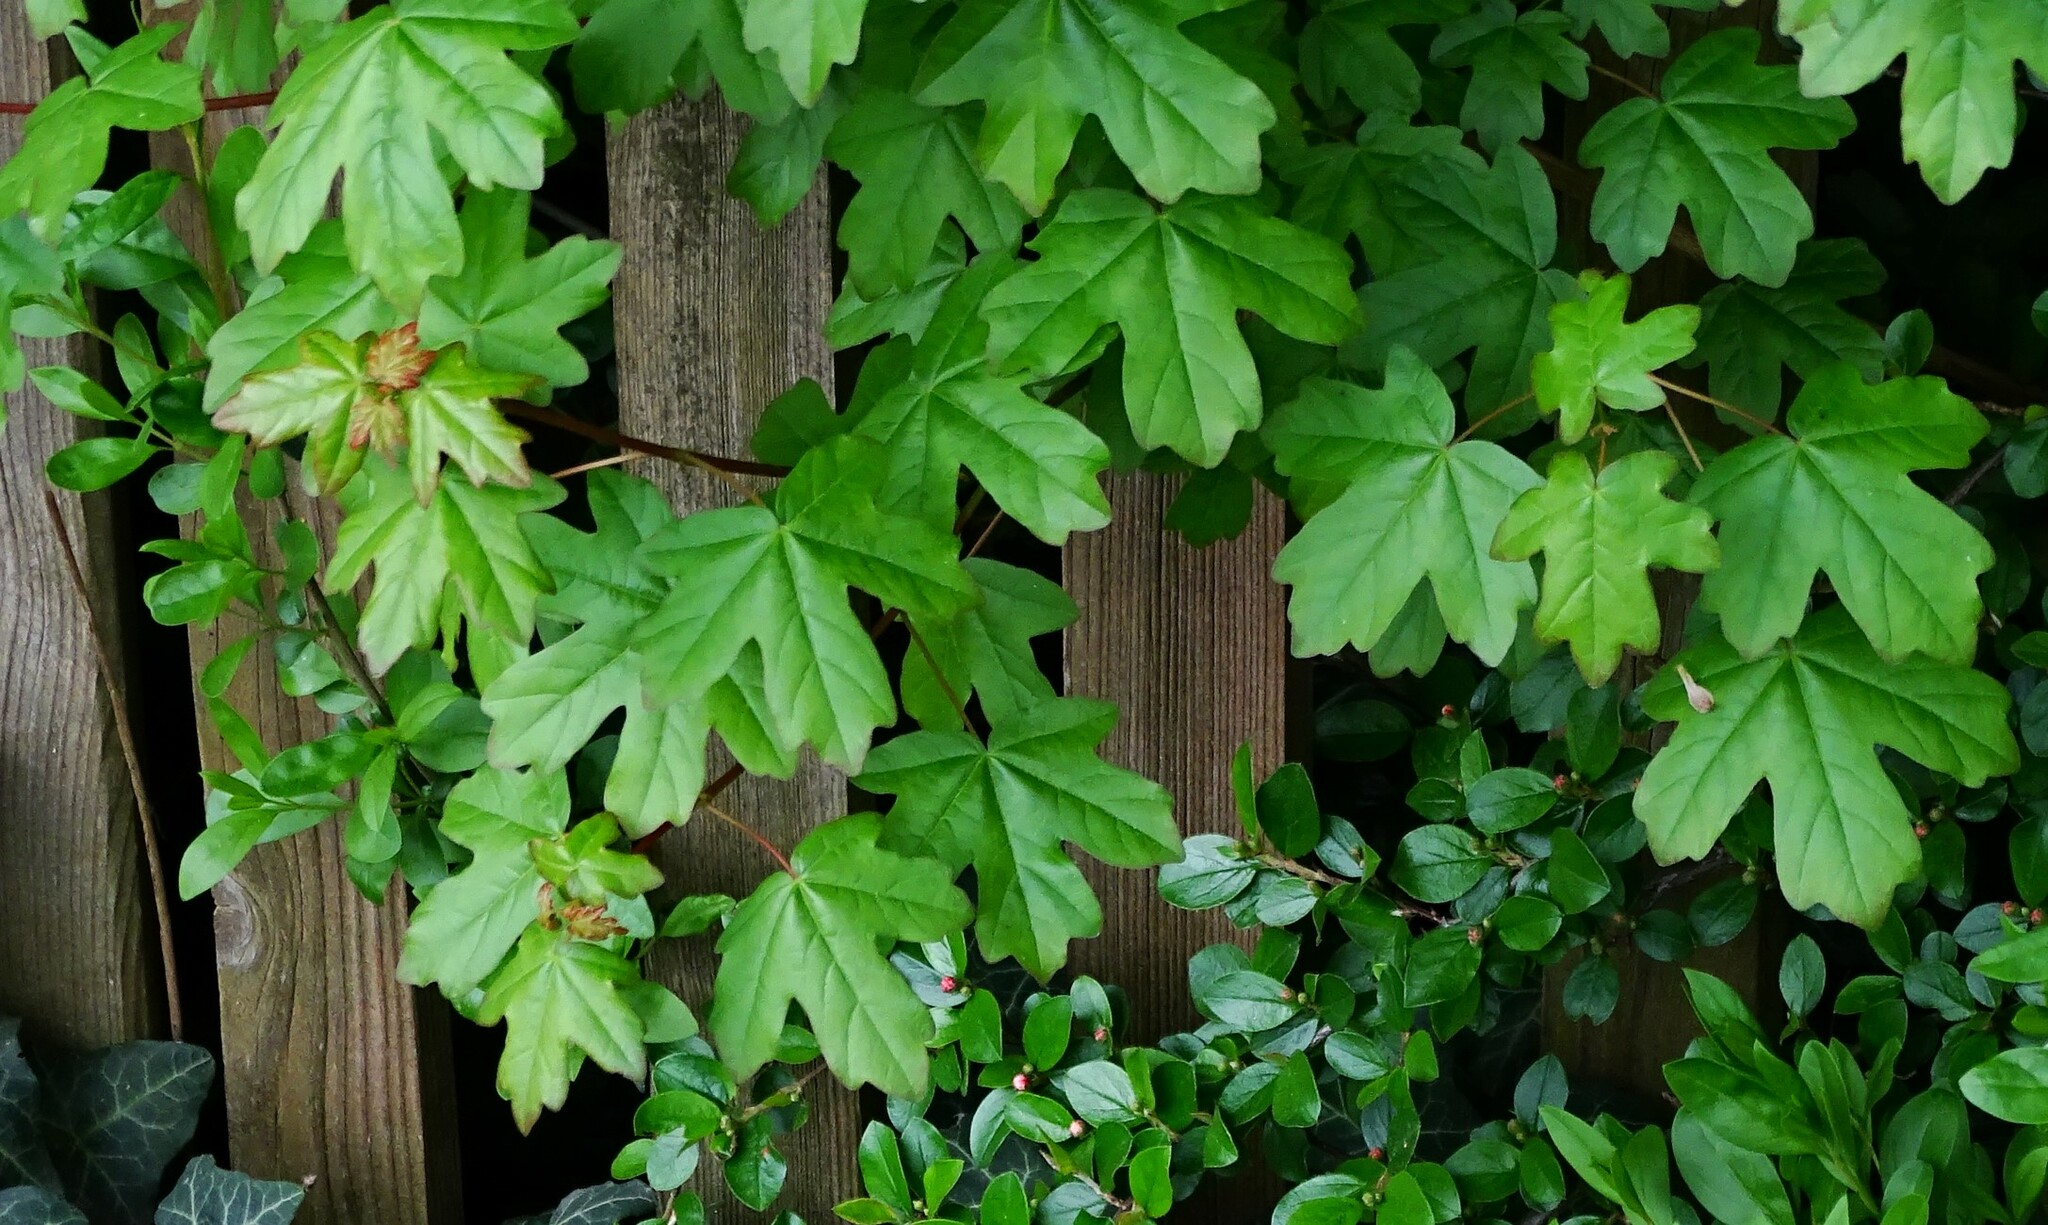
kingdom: Plantae
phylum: Tracheophyta
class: Magnoliopsida
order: Sapindales
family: Sapindaceae
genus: Acer
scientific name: Acer campestre
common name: Field maple
